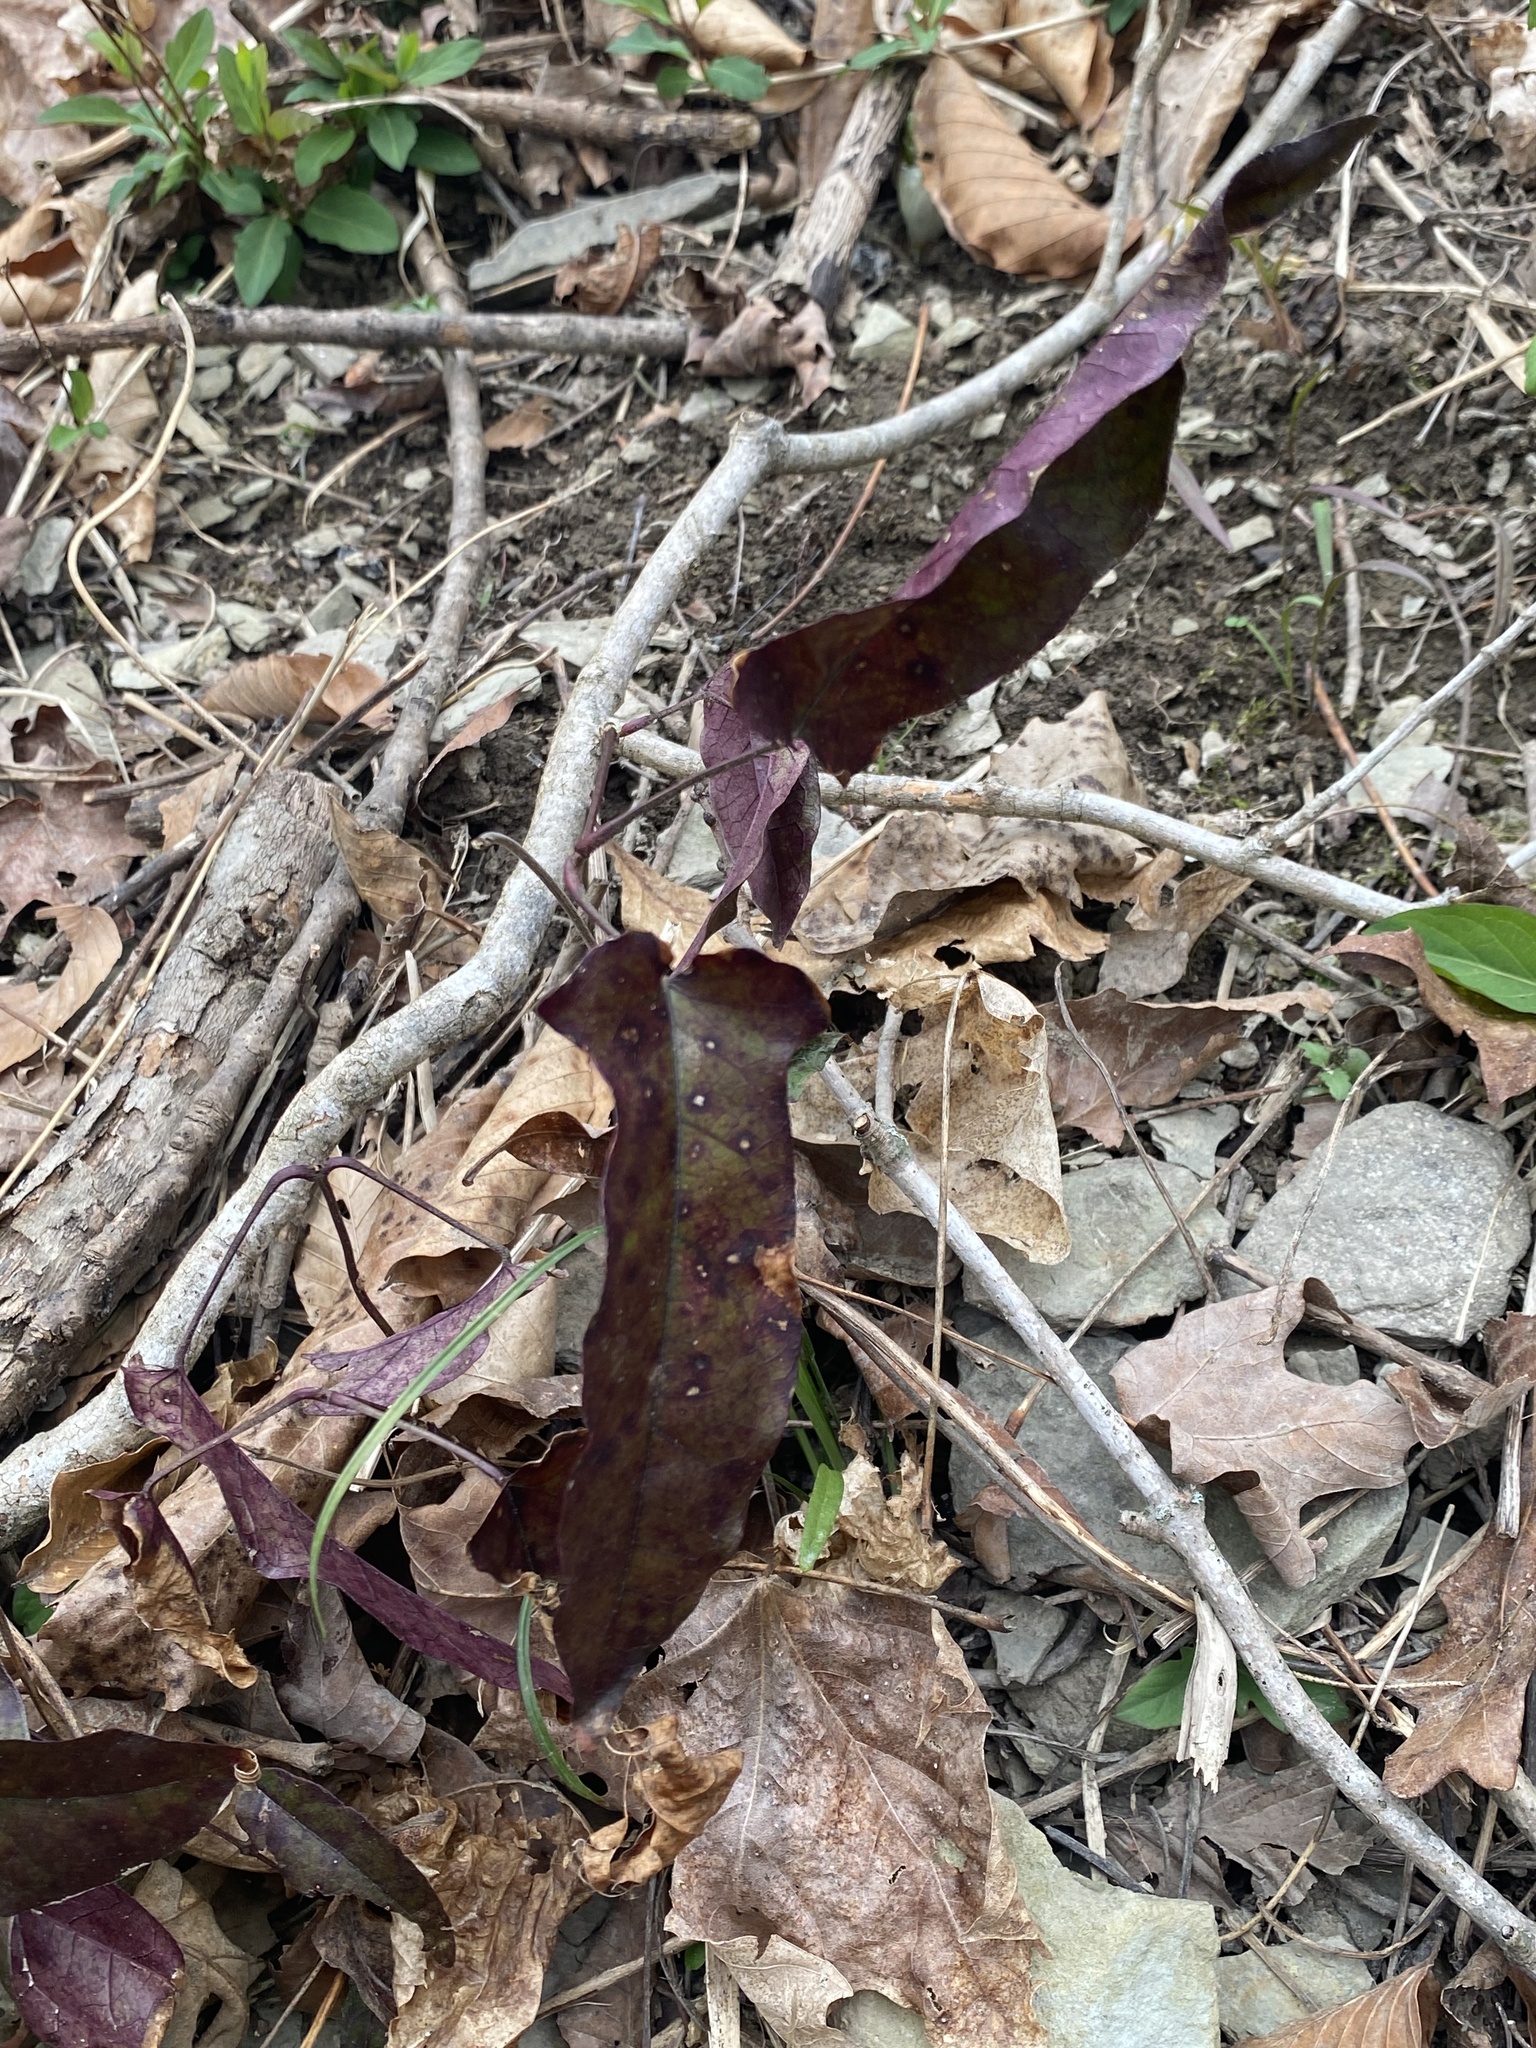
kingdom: Plantae
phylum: Tracheophyta
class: Magnoliopsida
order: Lamiales
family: Bignoniaceae
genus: Bignonia
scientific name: Bignonia capreolata
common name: Crossvine
